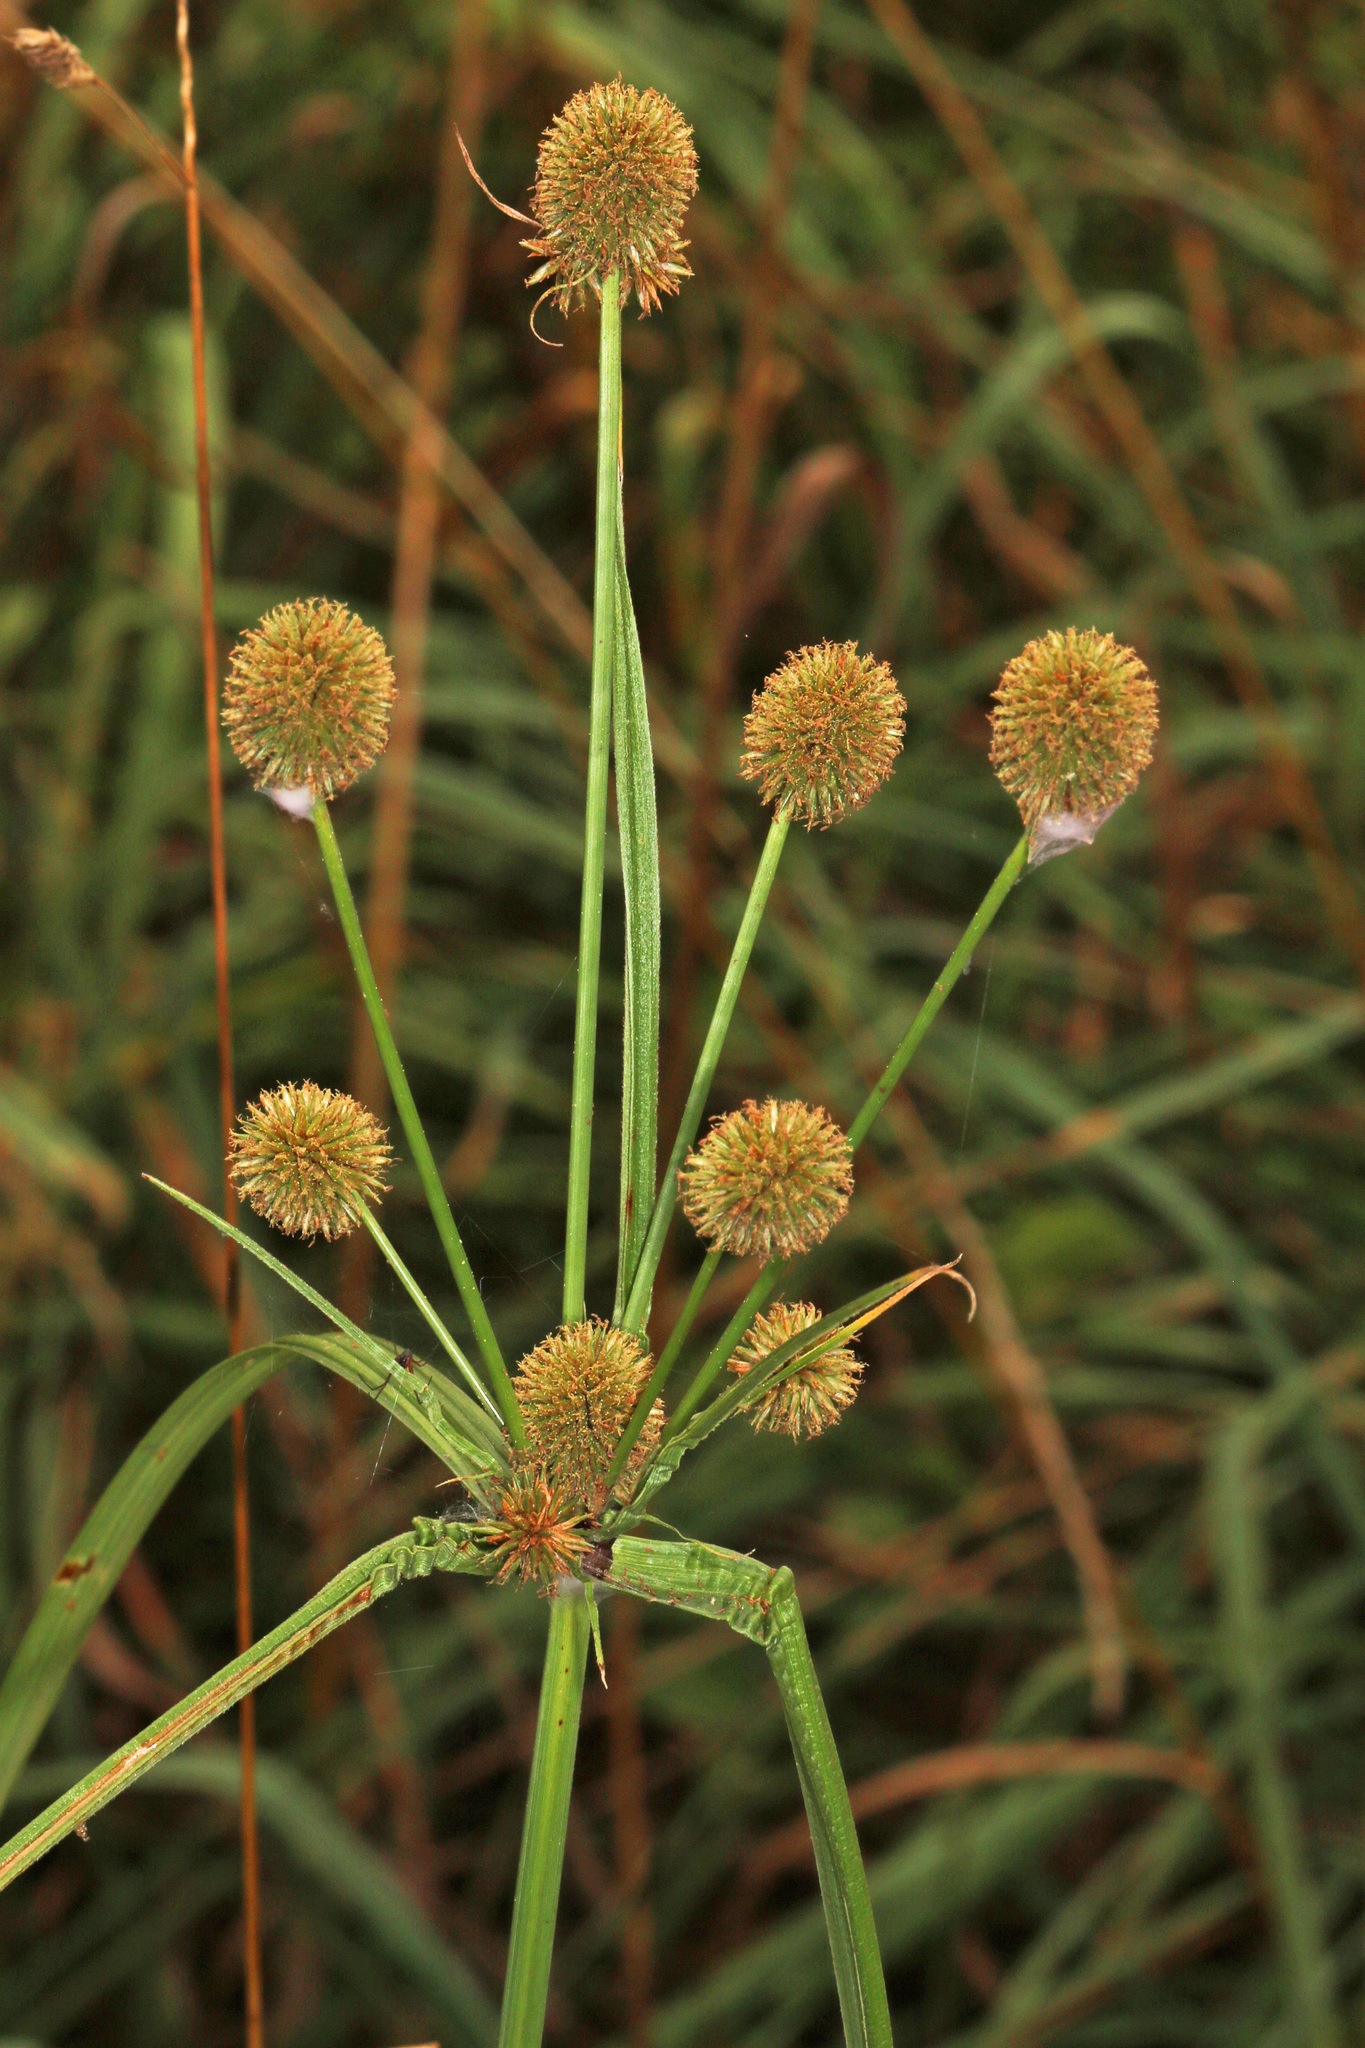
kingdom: Plantae
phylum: Tracheophyta
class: Liliopsida
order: Poales
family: Cyperaceae
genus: Cyperus
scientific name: Cyperus echinatus
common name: Teasel sedge
